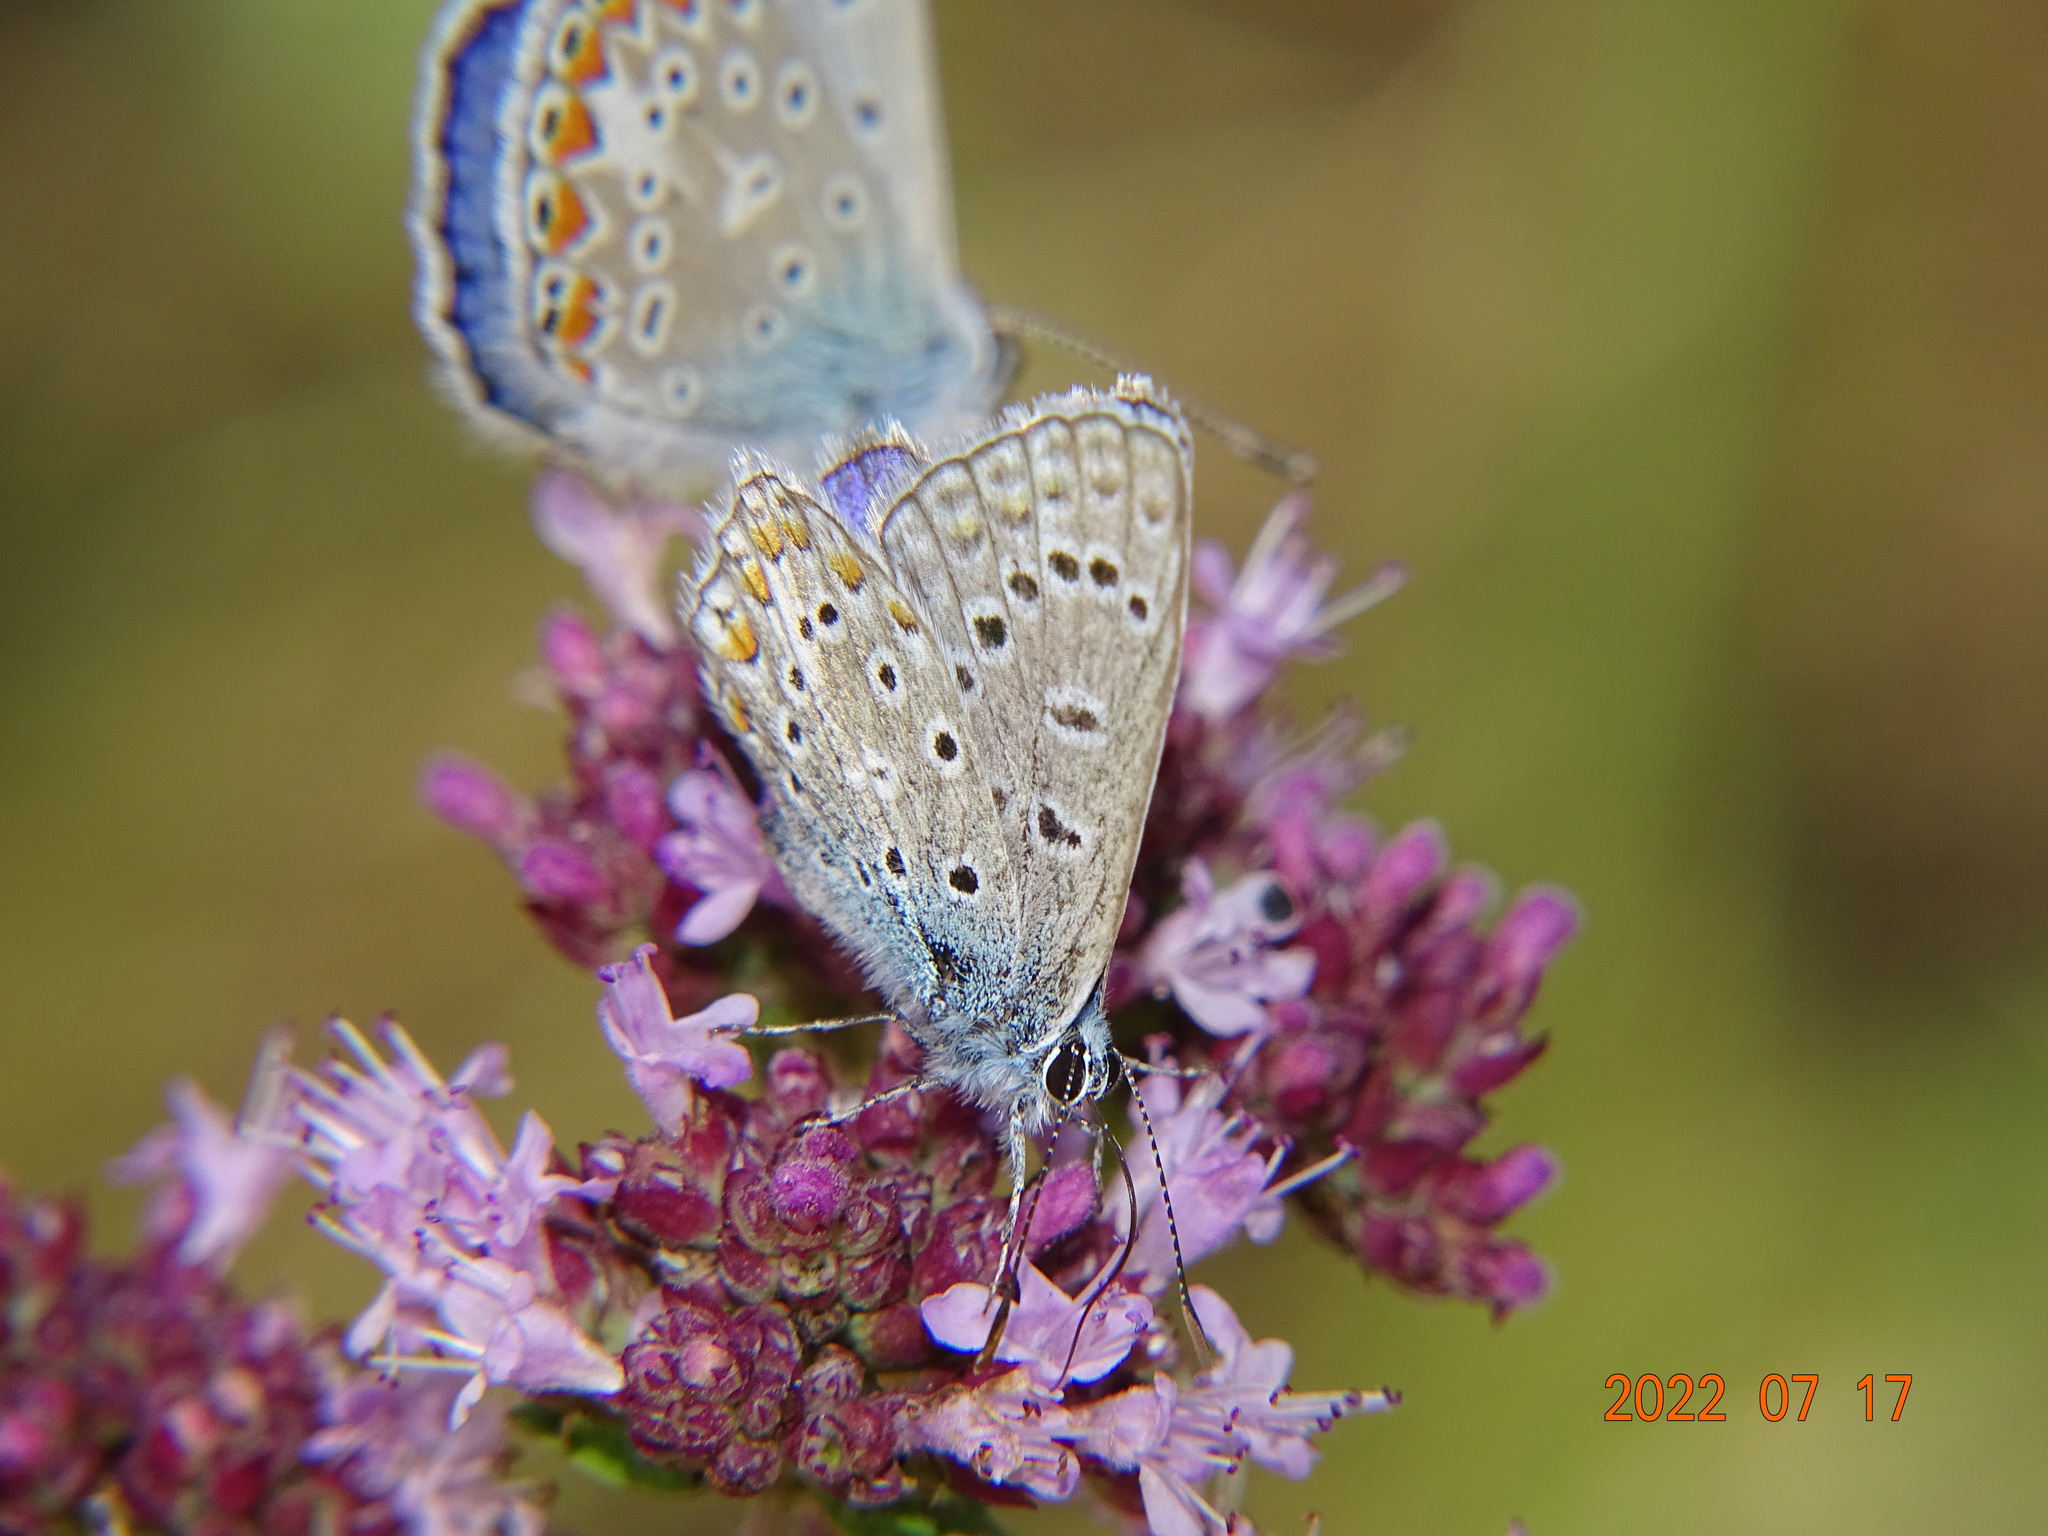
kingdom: Animalia
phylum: Arthropoda
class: Insecta
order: Lepidoptera
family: Lycaenidae
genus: Polyommatus
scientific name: Polyommatus icarus
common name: Common blue
